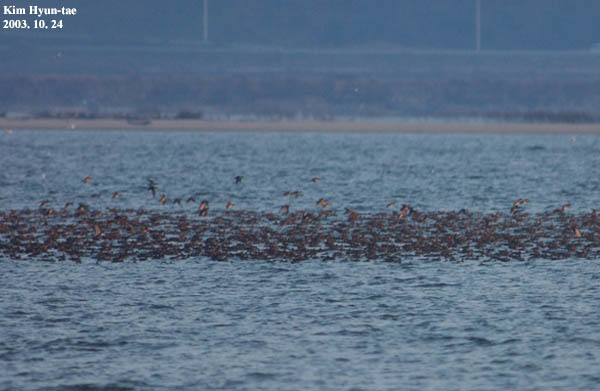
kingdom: Animalia
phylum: Chordata
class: Aves
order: Anseriformes
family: Anatidae
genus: Sibirionetta
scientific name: Sibirionetta formosa
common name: Baikal teal
